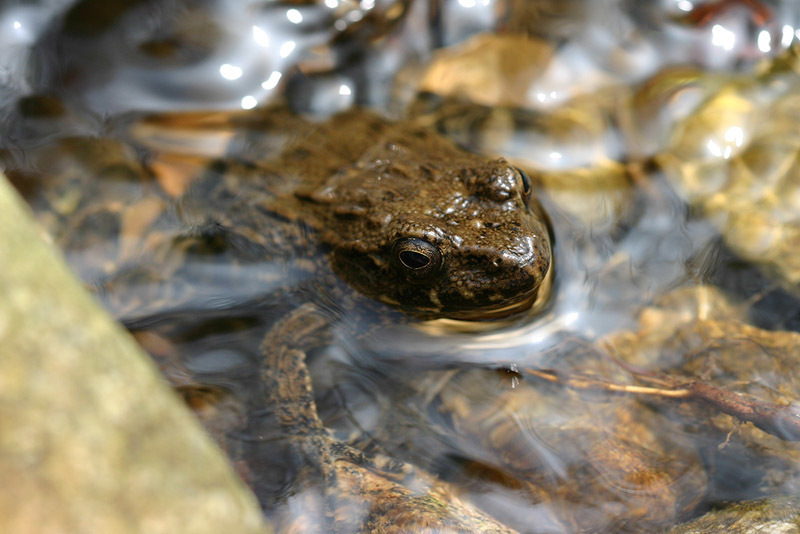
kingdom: Animalia
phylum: Chordata
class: Amphibia
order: Anura
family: Ranidae
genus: Glandirana
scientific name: Glandirana emeljanovi
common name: Northeast china rough-skinned frog
